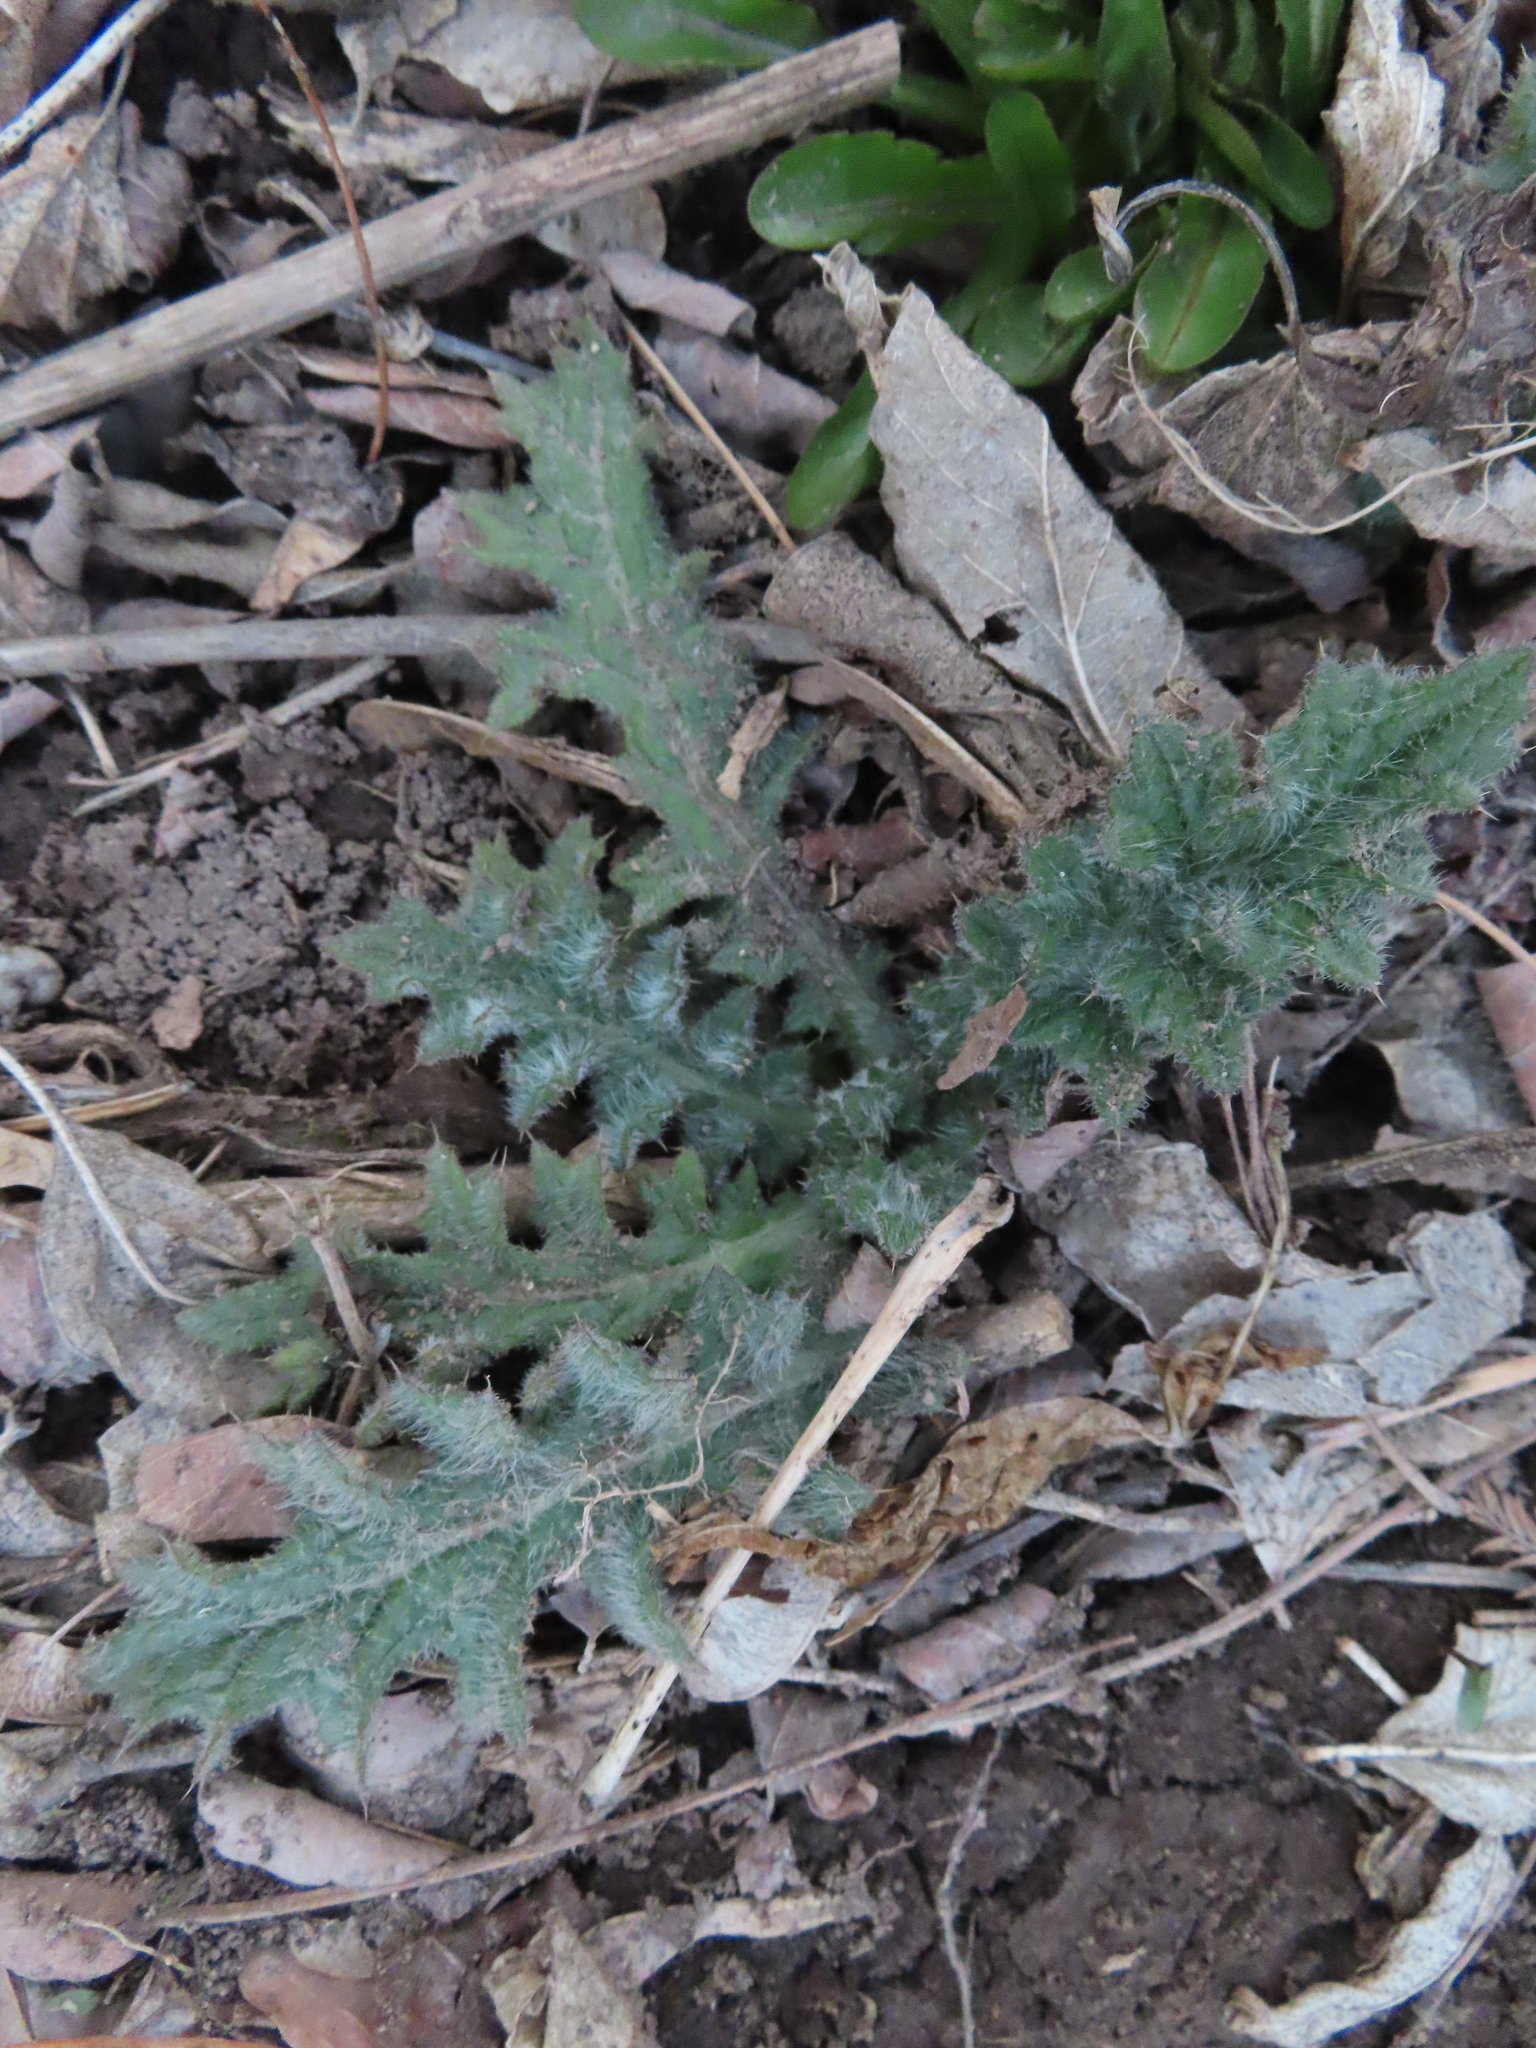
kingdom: Plantae
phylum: Tracheophyta
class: Magnoliopsida
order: Asterales
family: Asteraceae
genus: Cirsium
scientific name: Cirsium vulgare
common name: Bull thistle
